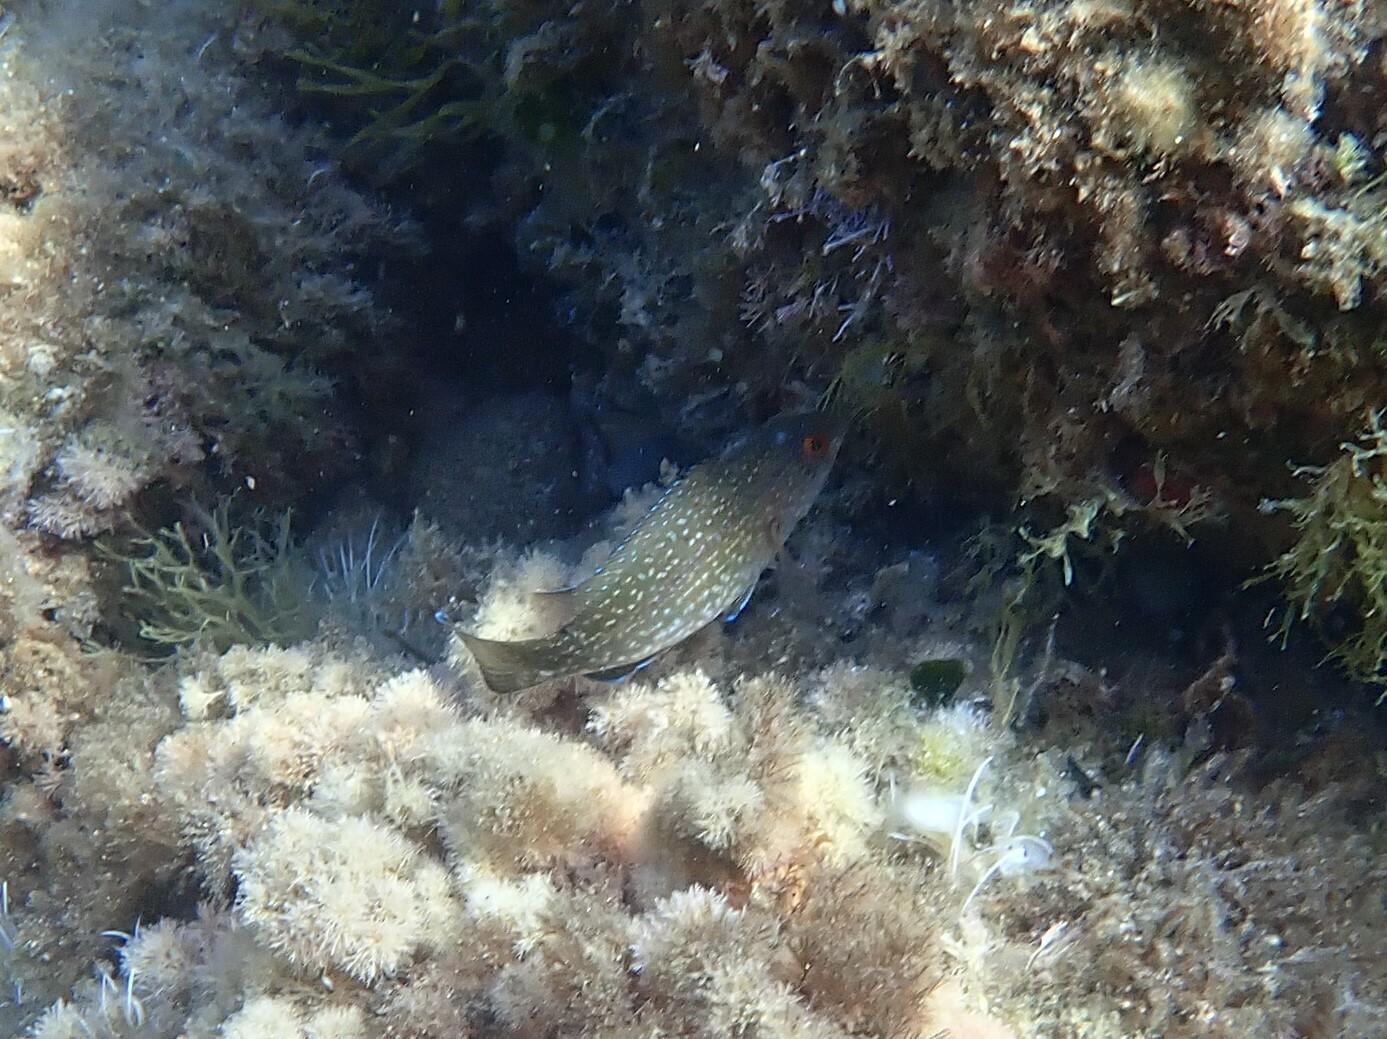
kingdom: Animalia
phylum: Chordata
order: Perciformes
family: Labridae
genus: Labrus
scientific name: Labrus merula
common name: Brown wrasse
